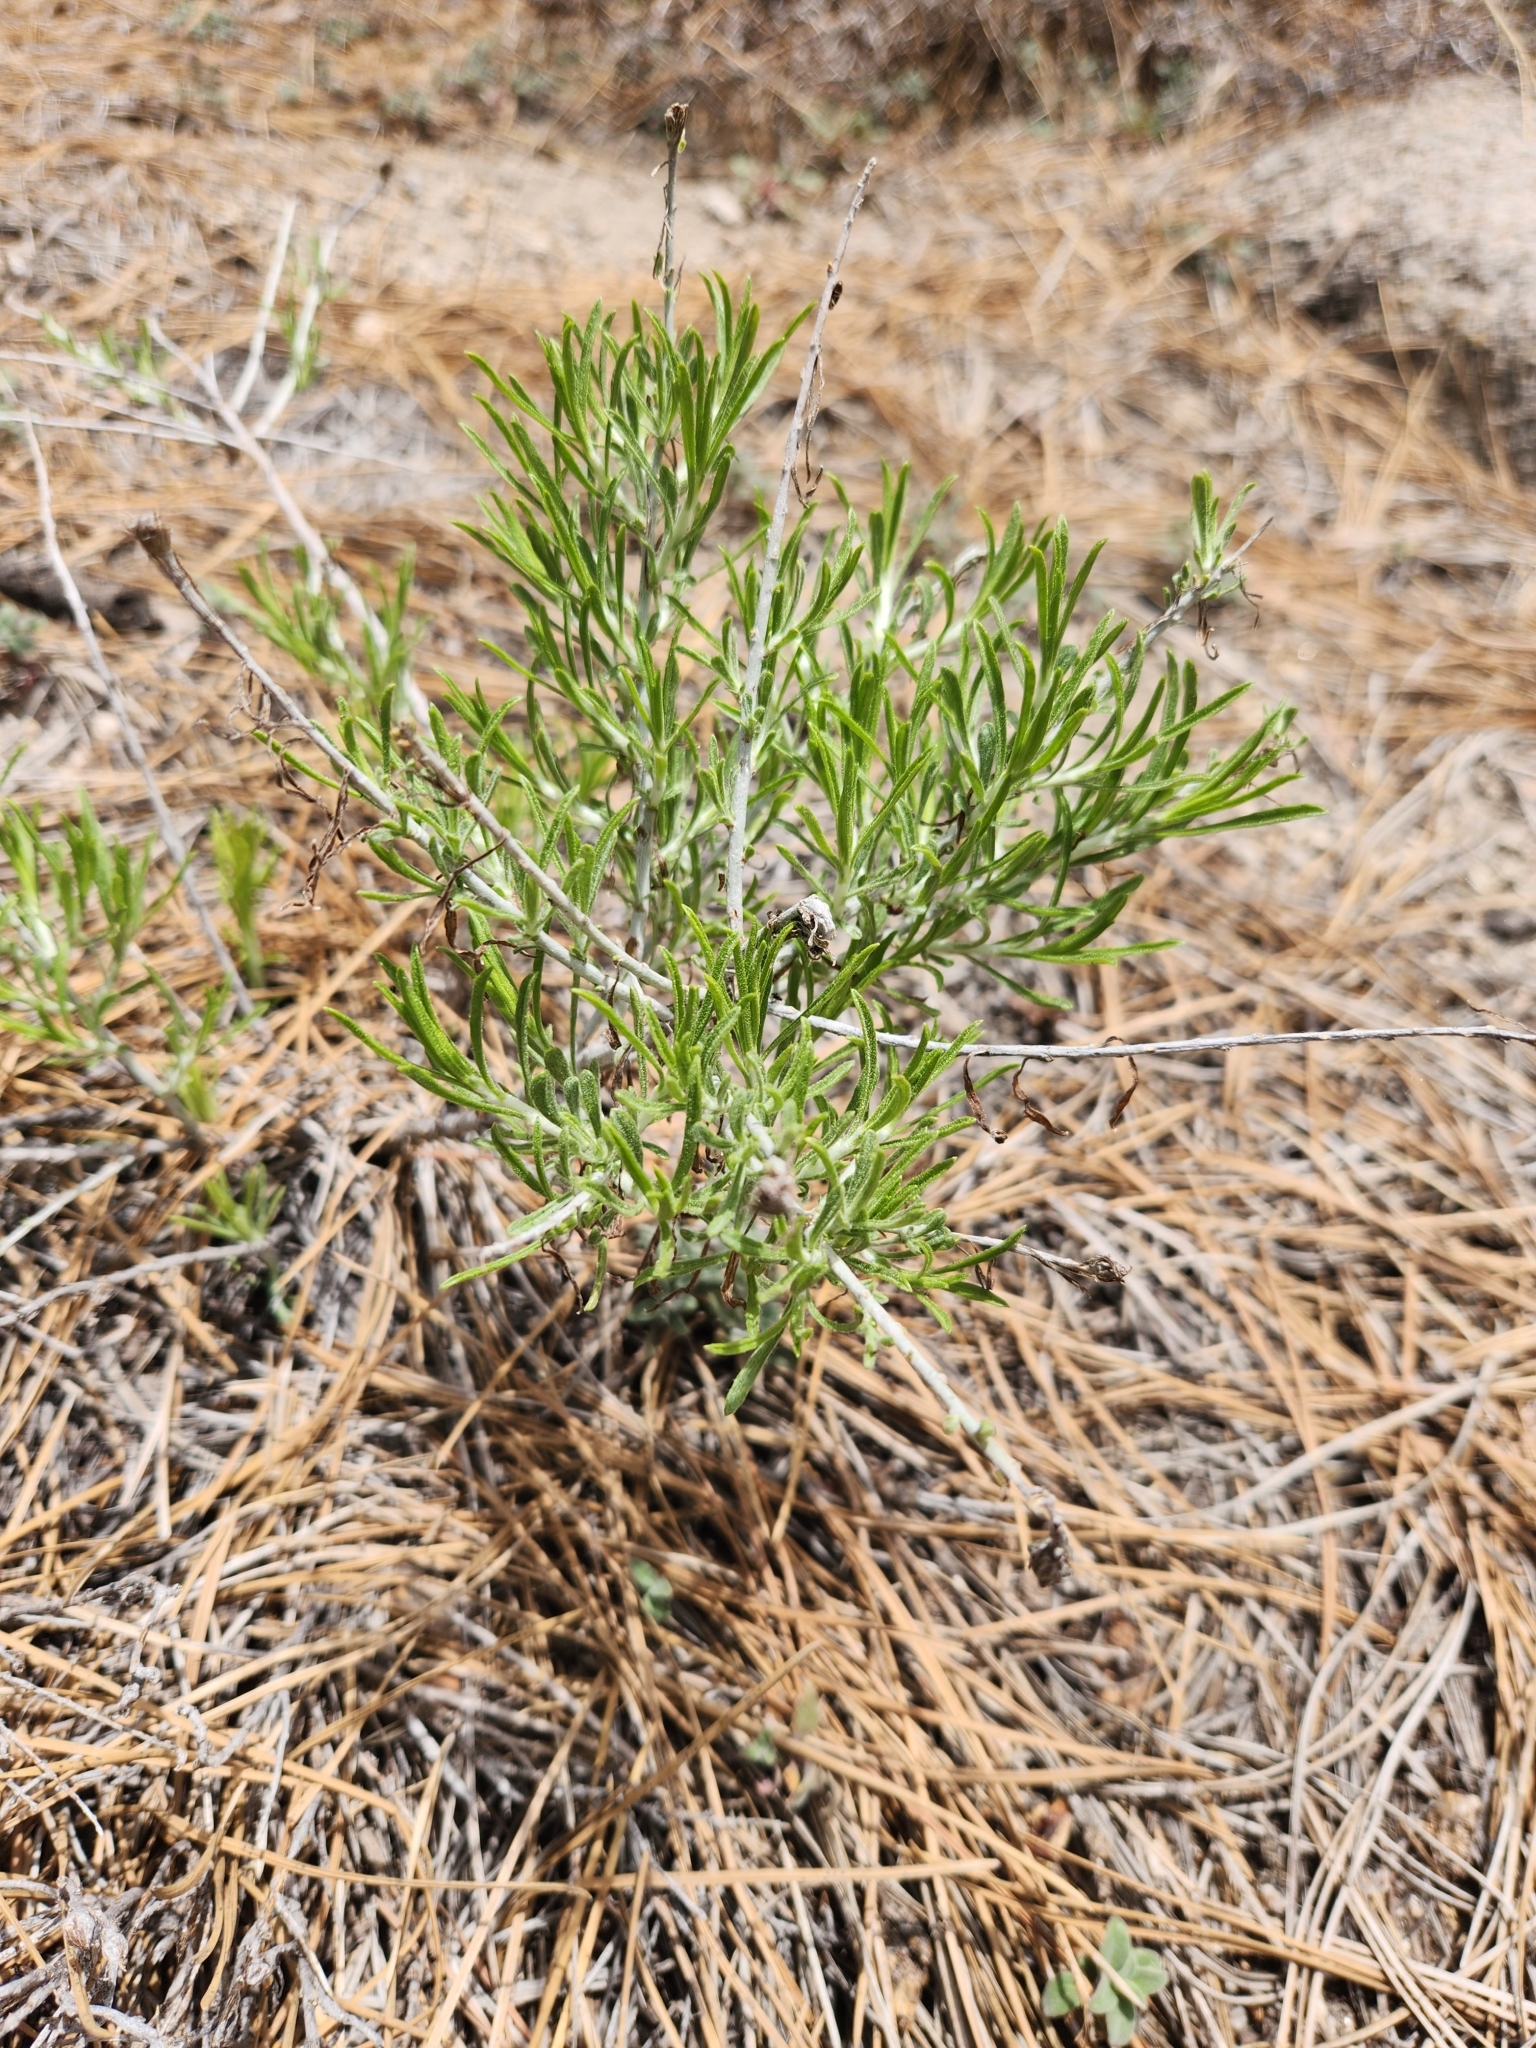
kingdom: Plantae
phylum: Tracheophyta
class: Magnoliopsida
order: Asterales
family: Asteraceae
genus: Ericameria
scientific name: Ericameria nauseosa
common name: Rubber rabbitbrush
